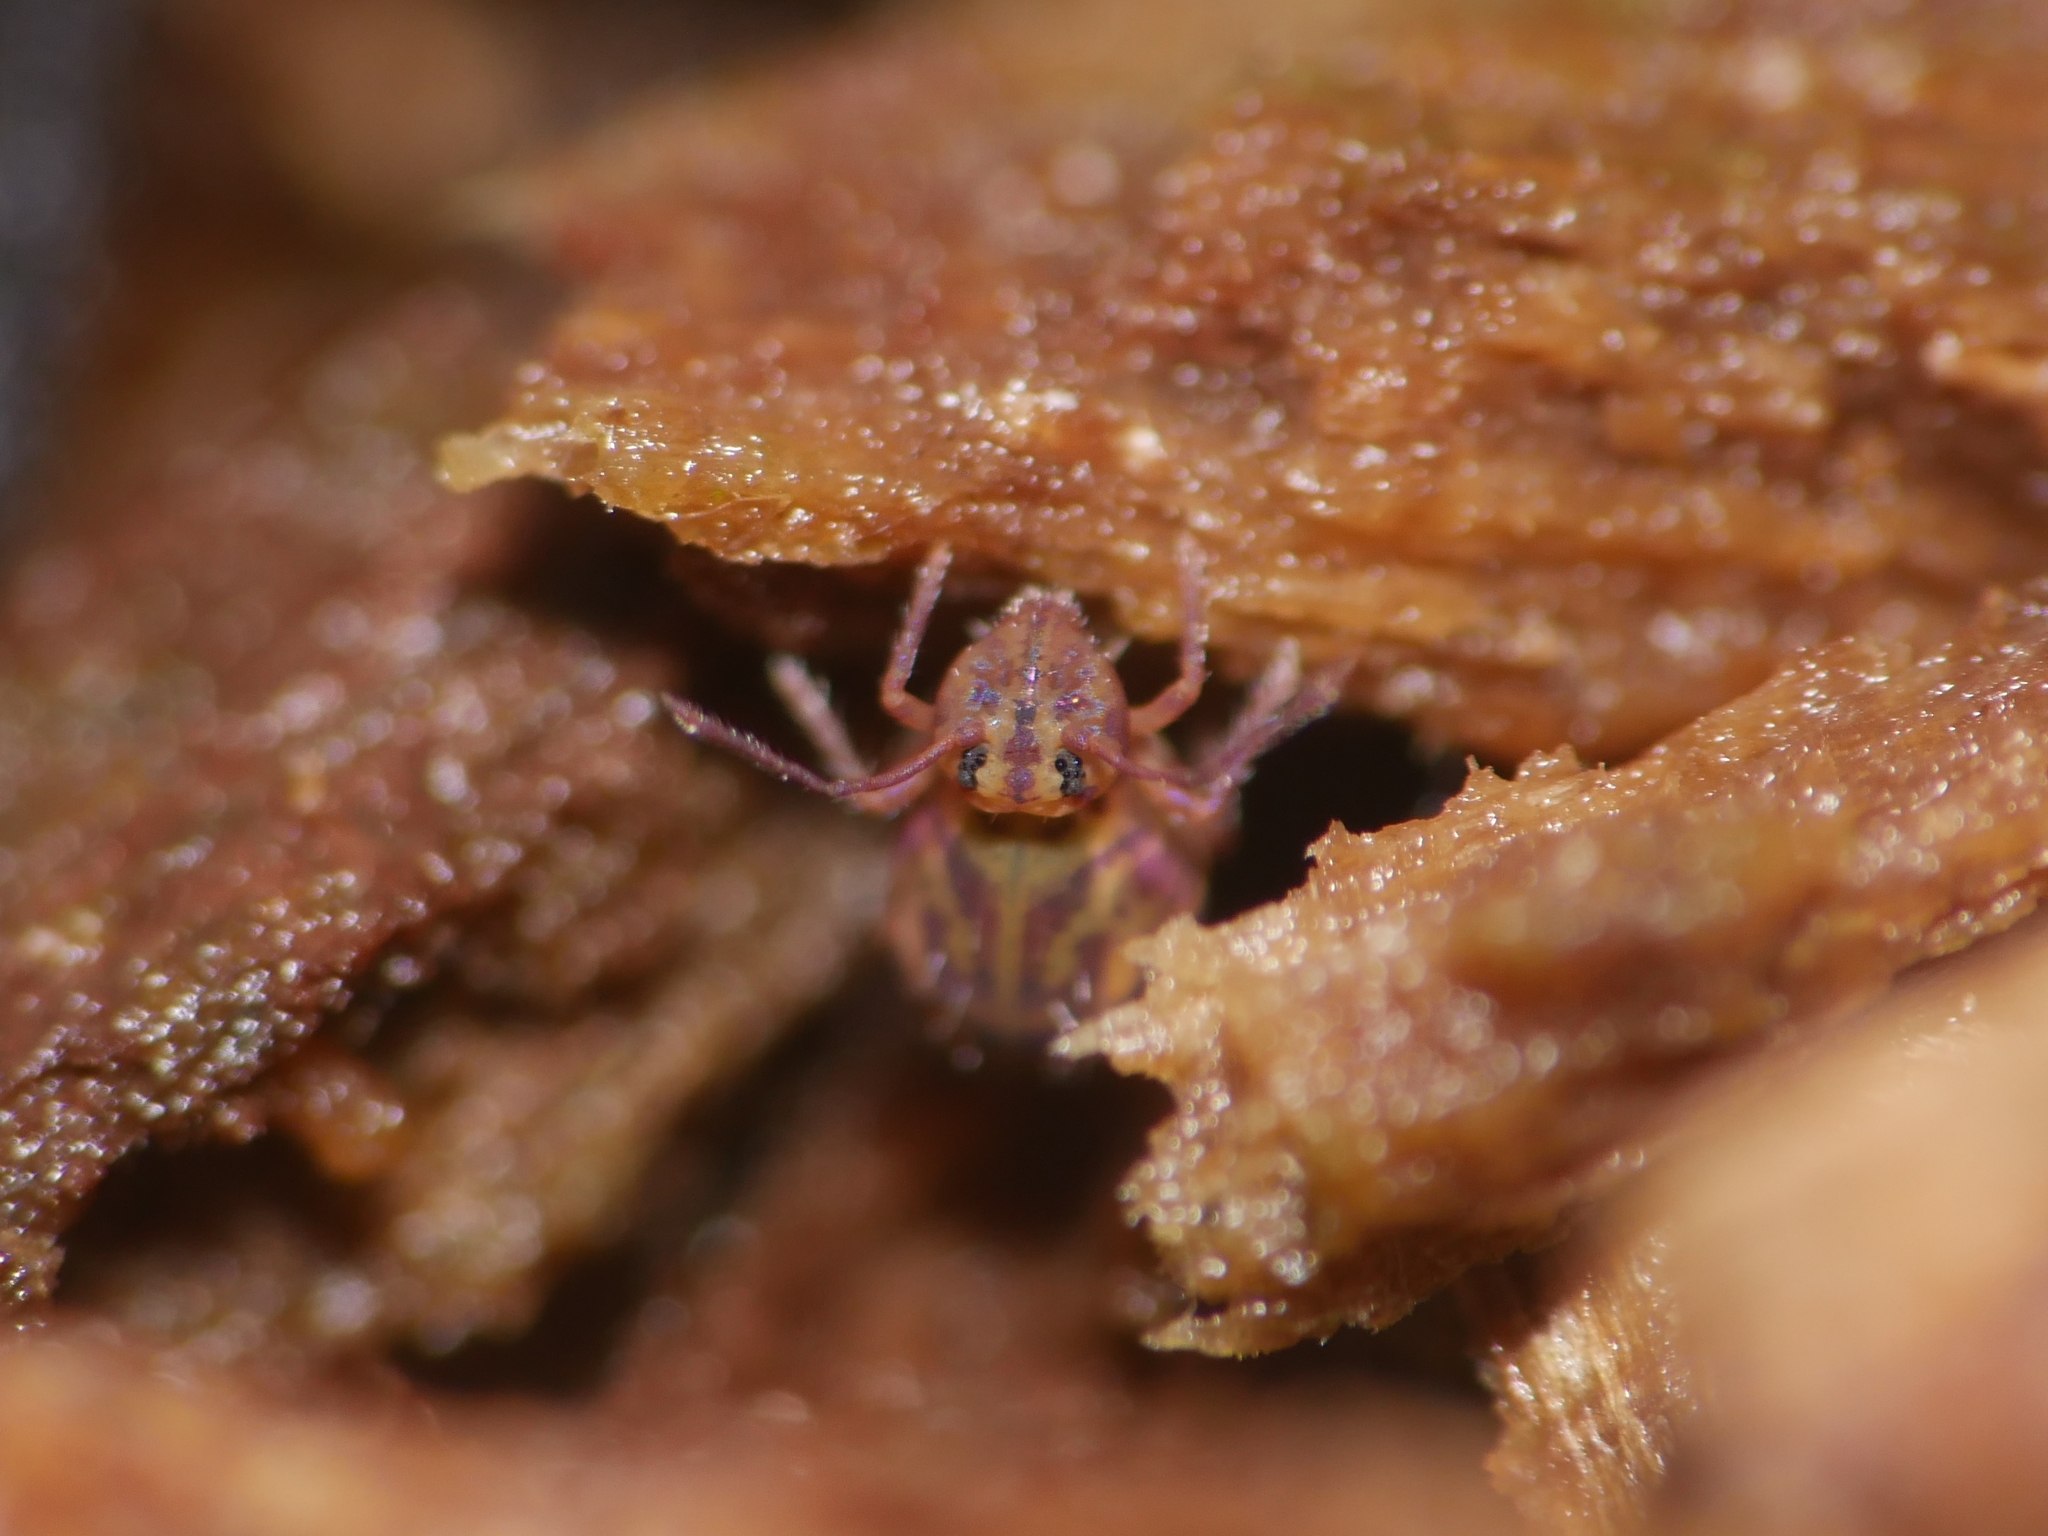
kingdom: Animalia
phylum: Arthropoda
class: Collembola
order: Symphypleona
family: Dicyrtomidae
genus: Dicyrtomina
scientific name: Dicyrtomina ornata
